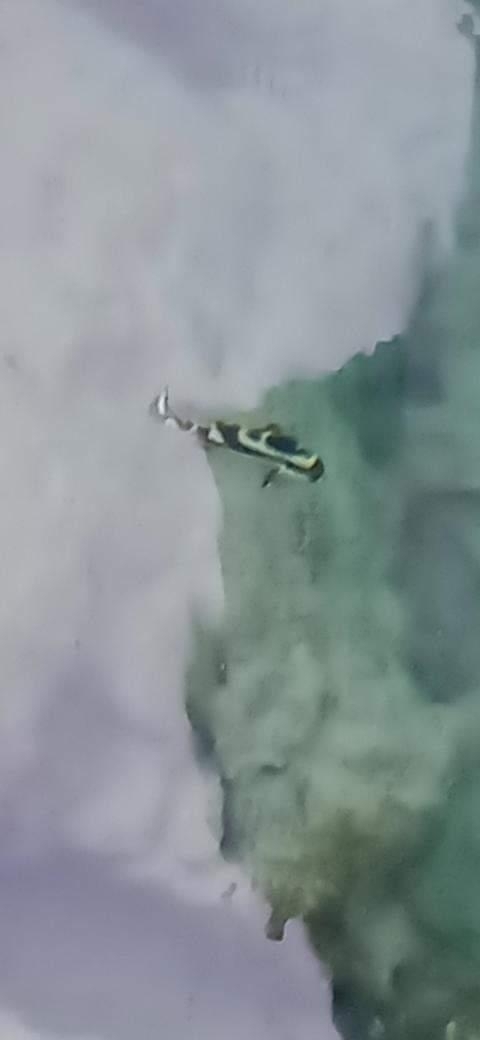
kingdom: Animalia
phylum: Chordata
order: Perciformes
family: Haemulidae
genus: Plectorhinchus
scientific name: Plectorhinchus vittatus
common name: Oriental sweetlips
